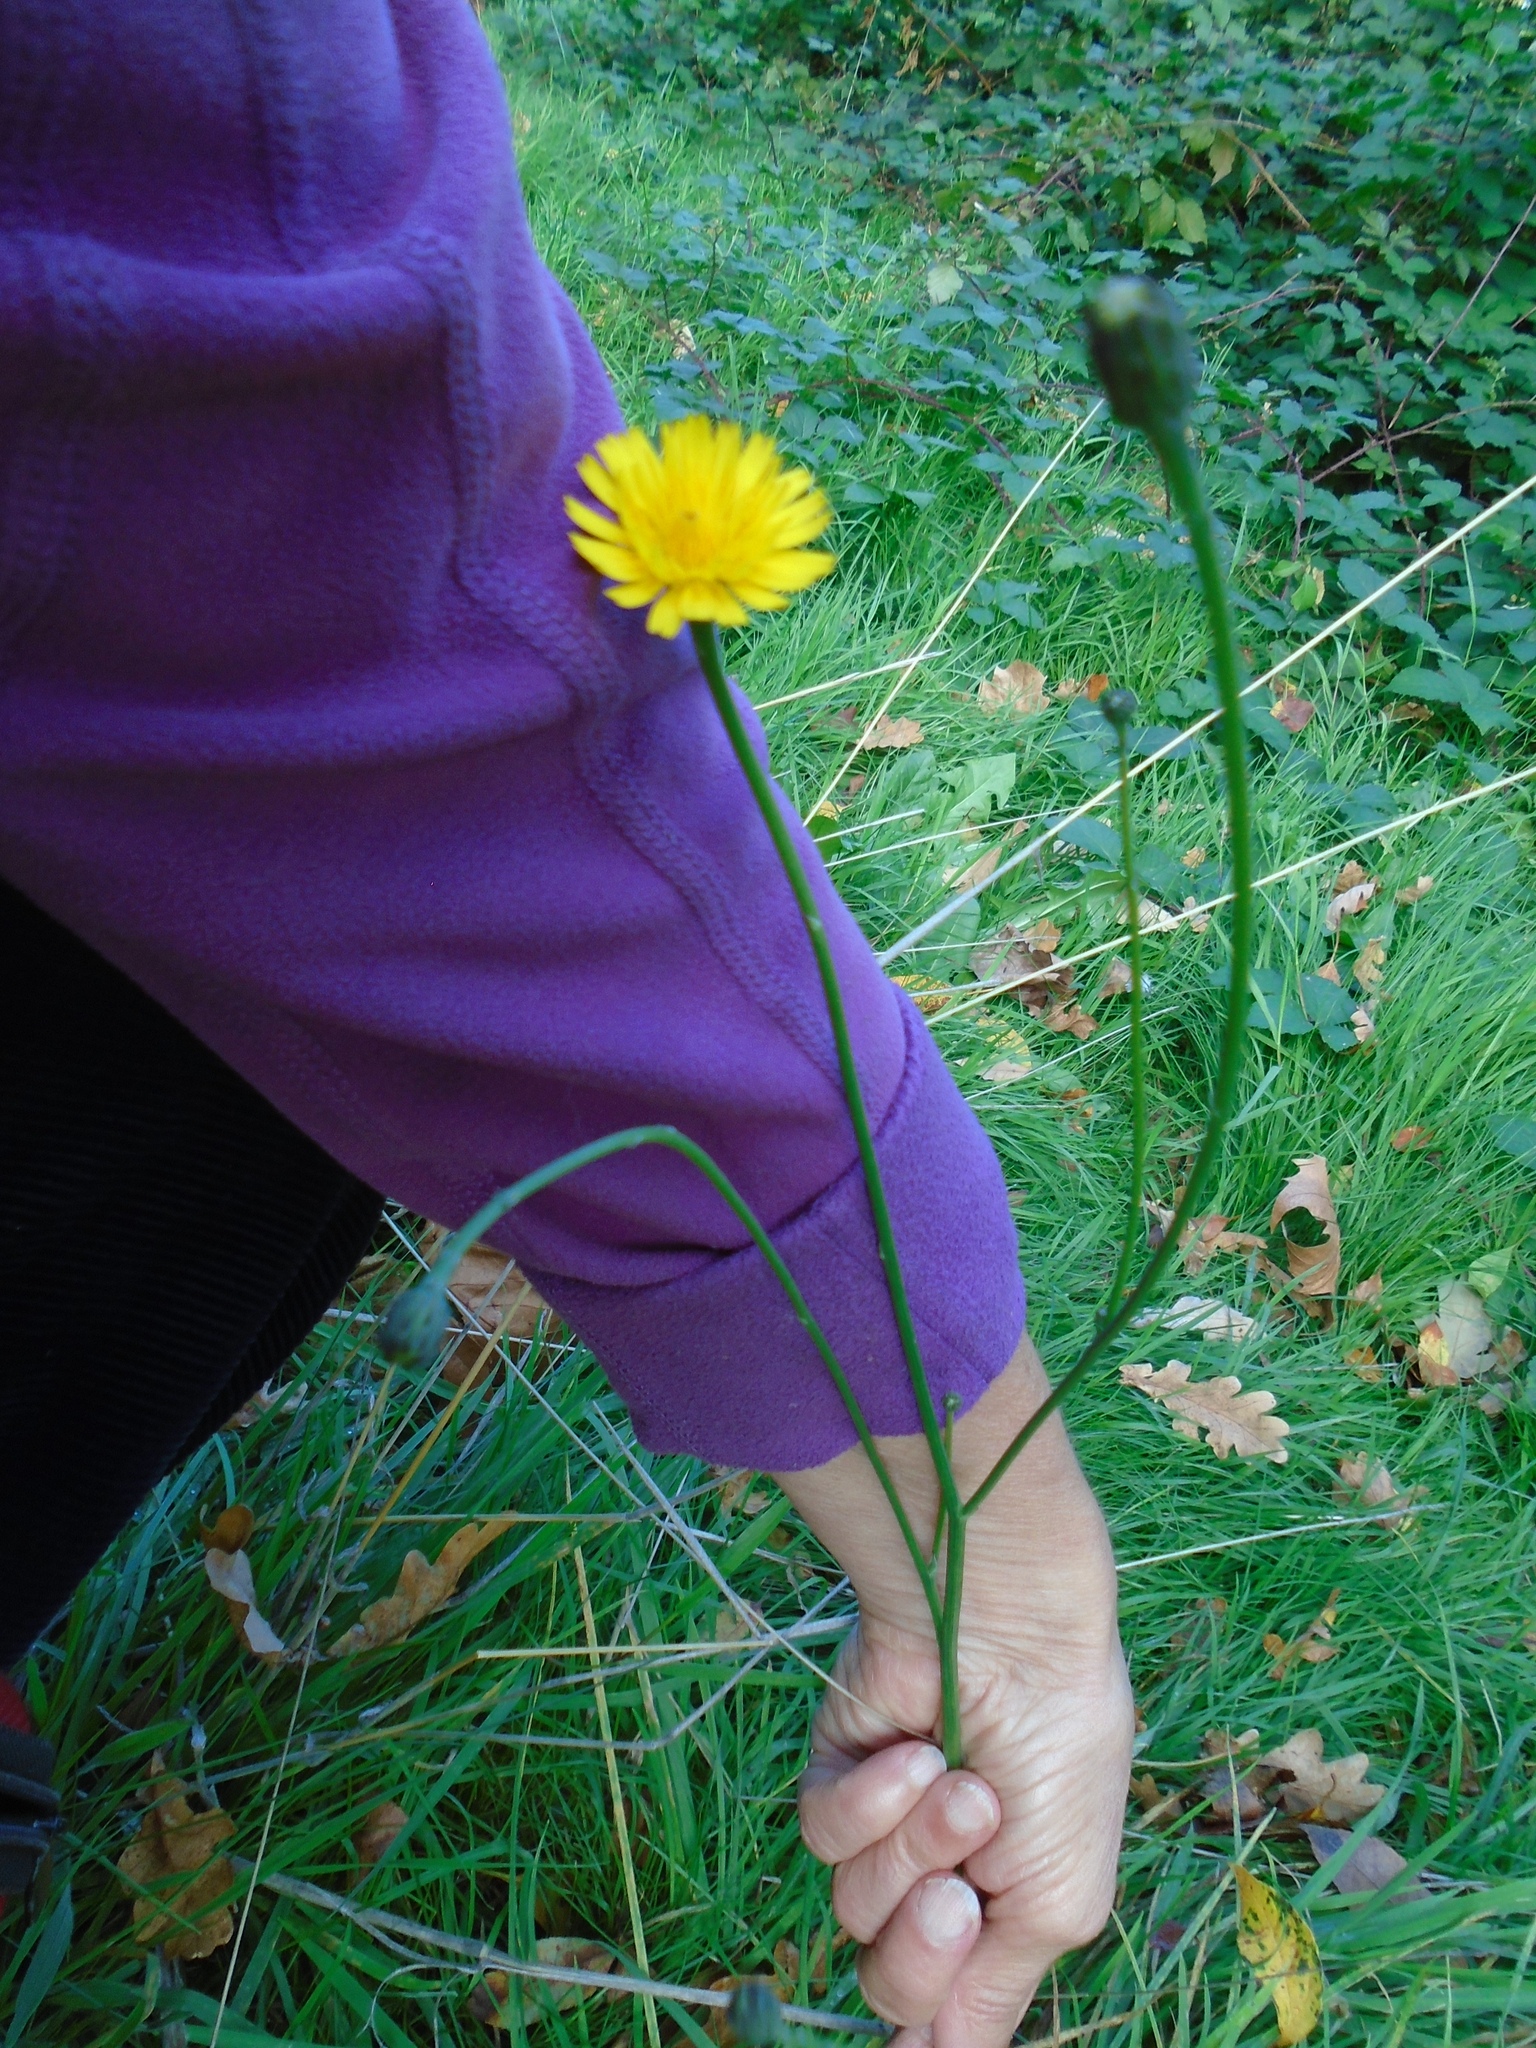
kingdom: Plantae
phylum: Tracheophyta
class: Magnoliopsida
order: Asterales
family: Asteraceae
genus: Hypochaeris
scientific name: Hypochaeris radicata
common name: Flatweed
